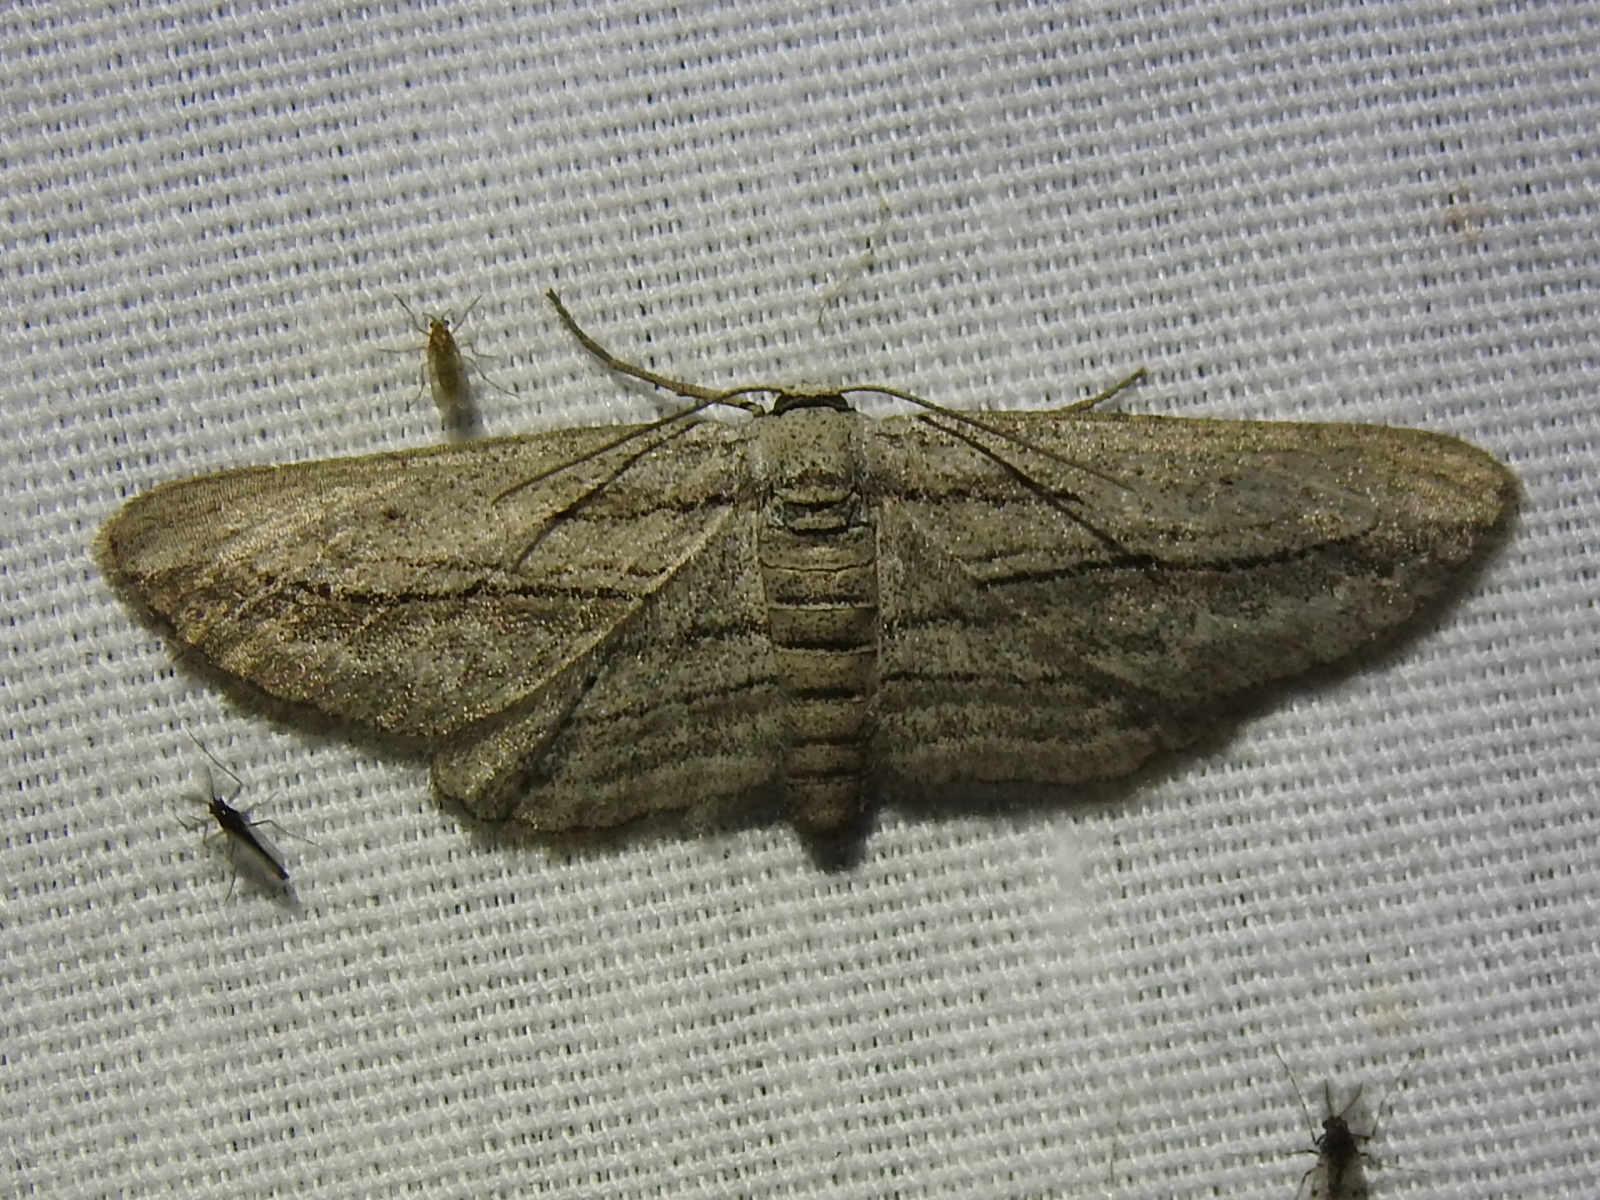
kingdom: Animalia
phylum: Arthropoda
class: Insecta
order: Lepidoptera
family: Geometridae
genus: Glena
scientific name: Glena quinquelinearia
